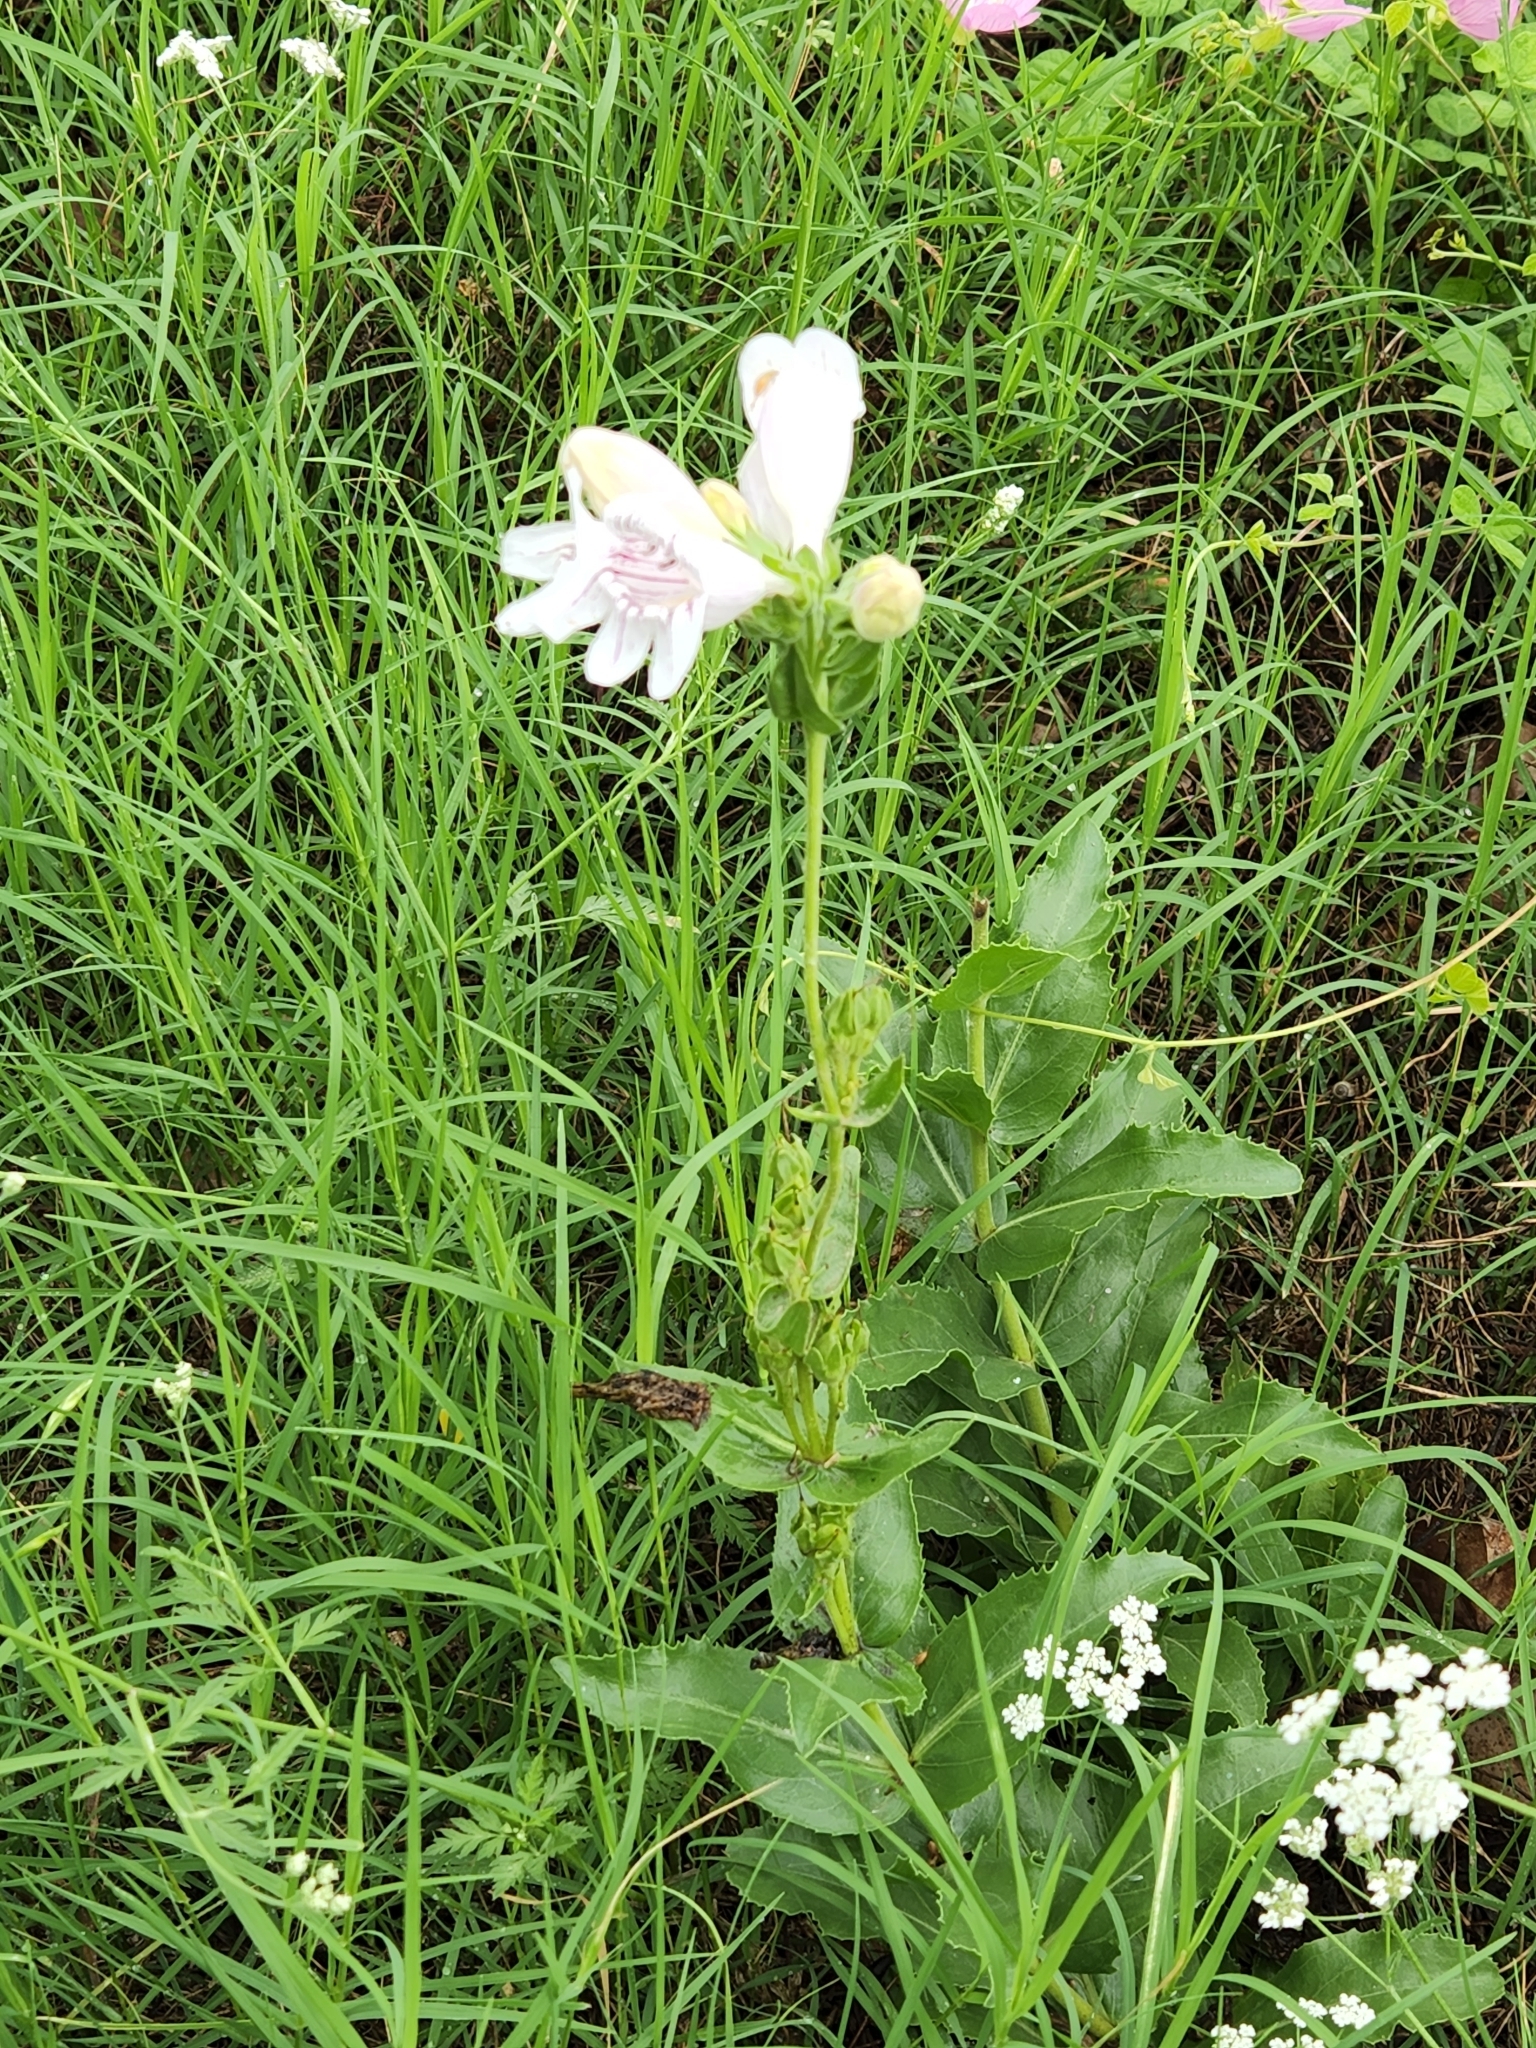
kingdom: Plantae
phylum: Tracheophyta
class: Magnoliopsida
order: Lamiales
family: Plantaginaceae
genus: Penstemon
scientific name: Penstemon cobaea
